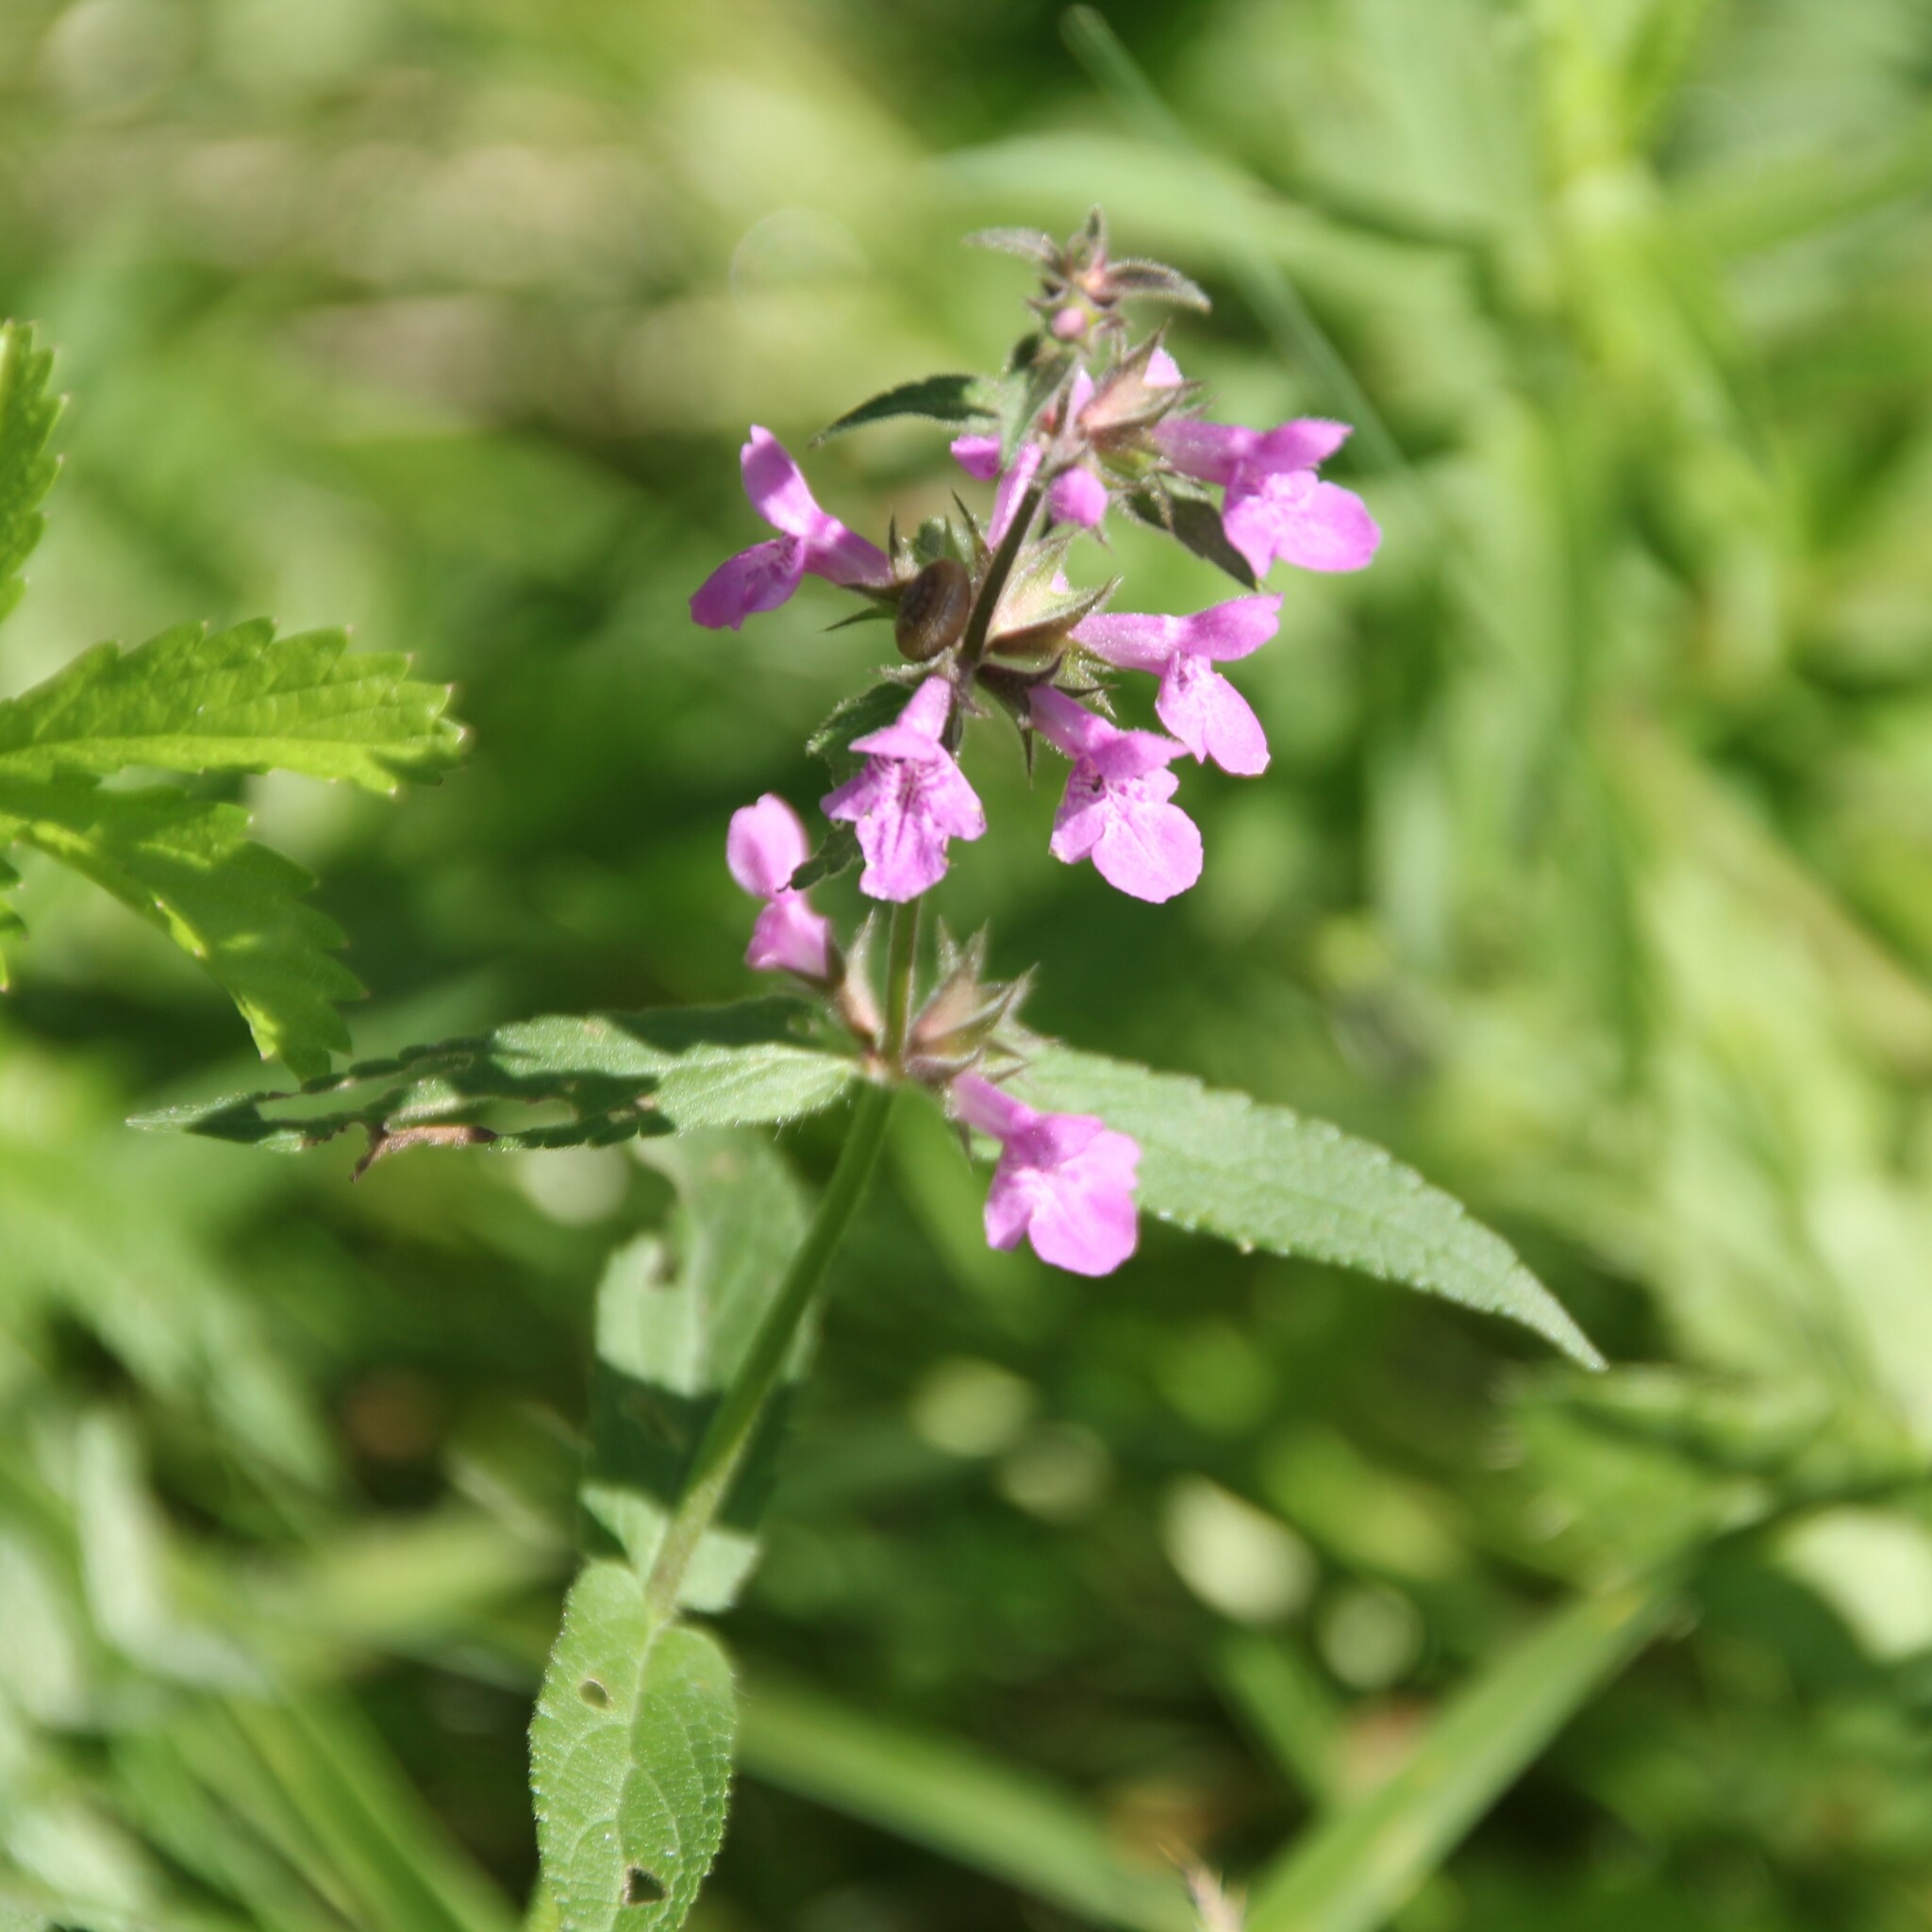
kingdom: Plantae
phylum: Tracheophyta
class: Magnoliopsida
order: Lamiales
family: Lamiaceae
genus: Stachys
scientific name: Stachys palustris
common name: Marsh woundwort
